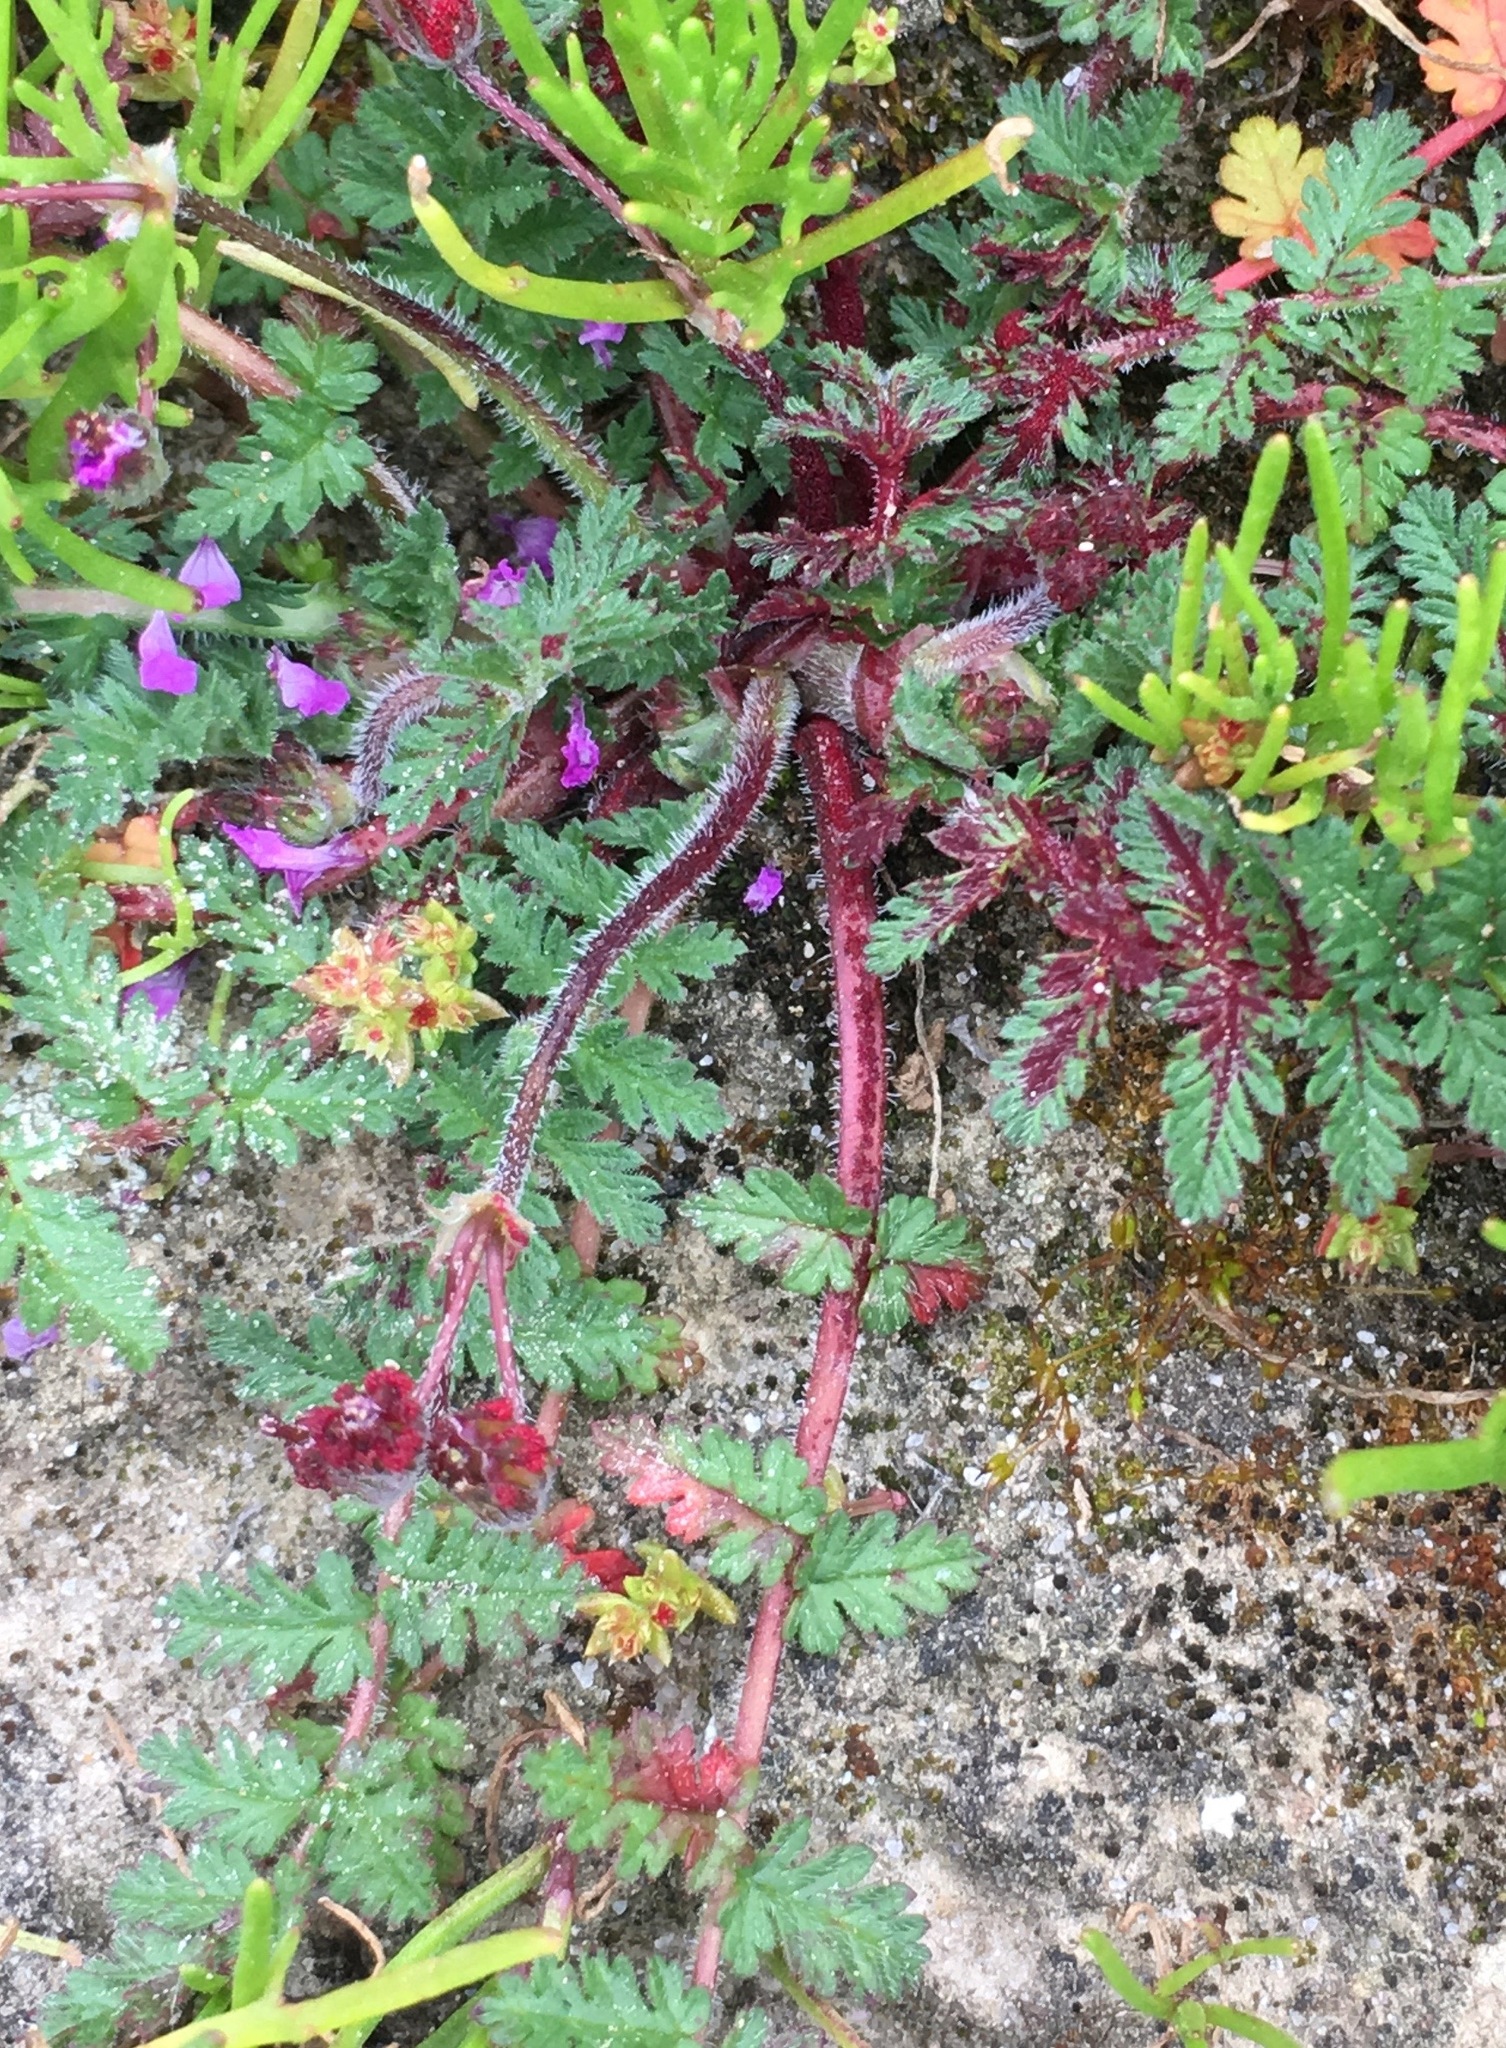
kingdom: Fungi
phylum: Chytridiomycota
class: Chytridiomycetes
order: Chytridiales
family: Synchytriaceae
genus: Synchytrium
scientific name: Synchytrium papillatum
